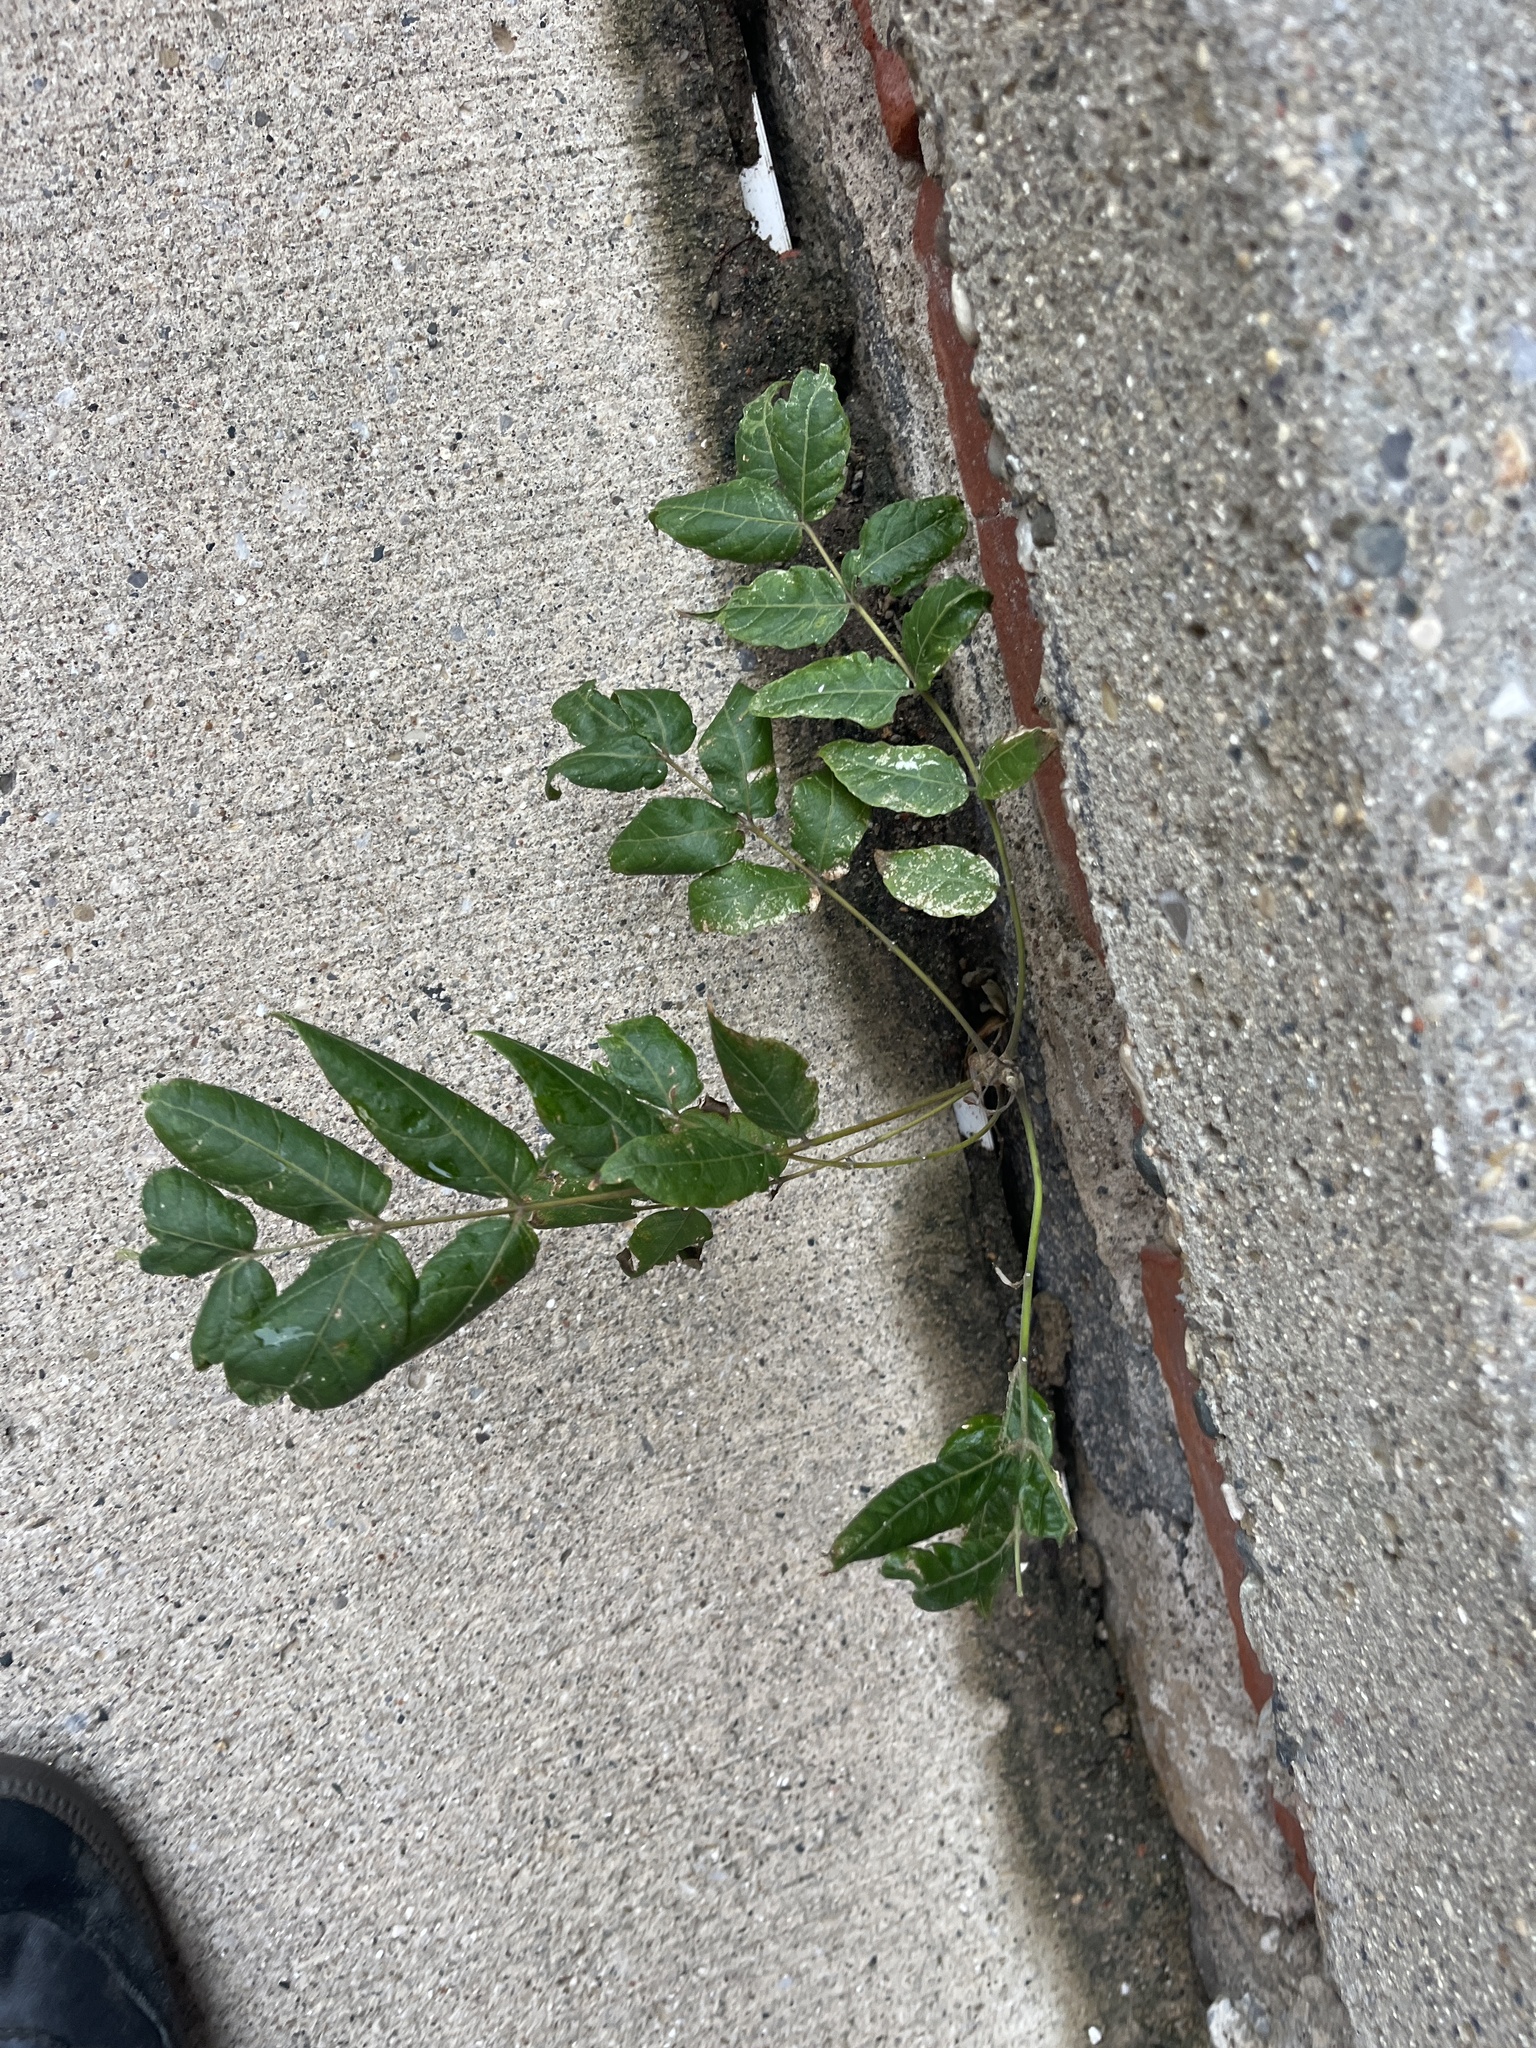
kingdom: Plantae
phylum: Tracheophyta
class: Magnoliopsida
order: Sapindales
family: Simaroubaceae
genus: Ailanthus
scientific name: Ailanthus altissima
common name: Tree-of-heaven
